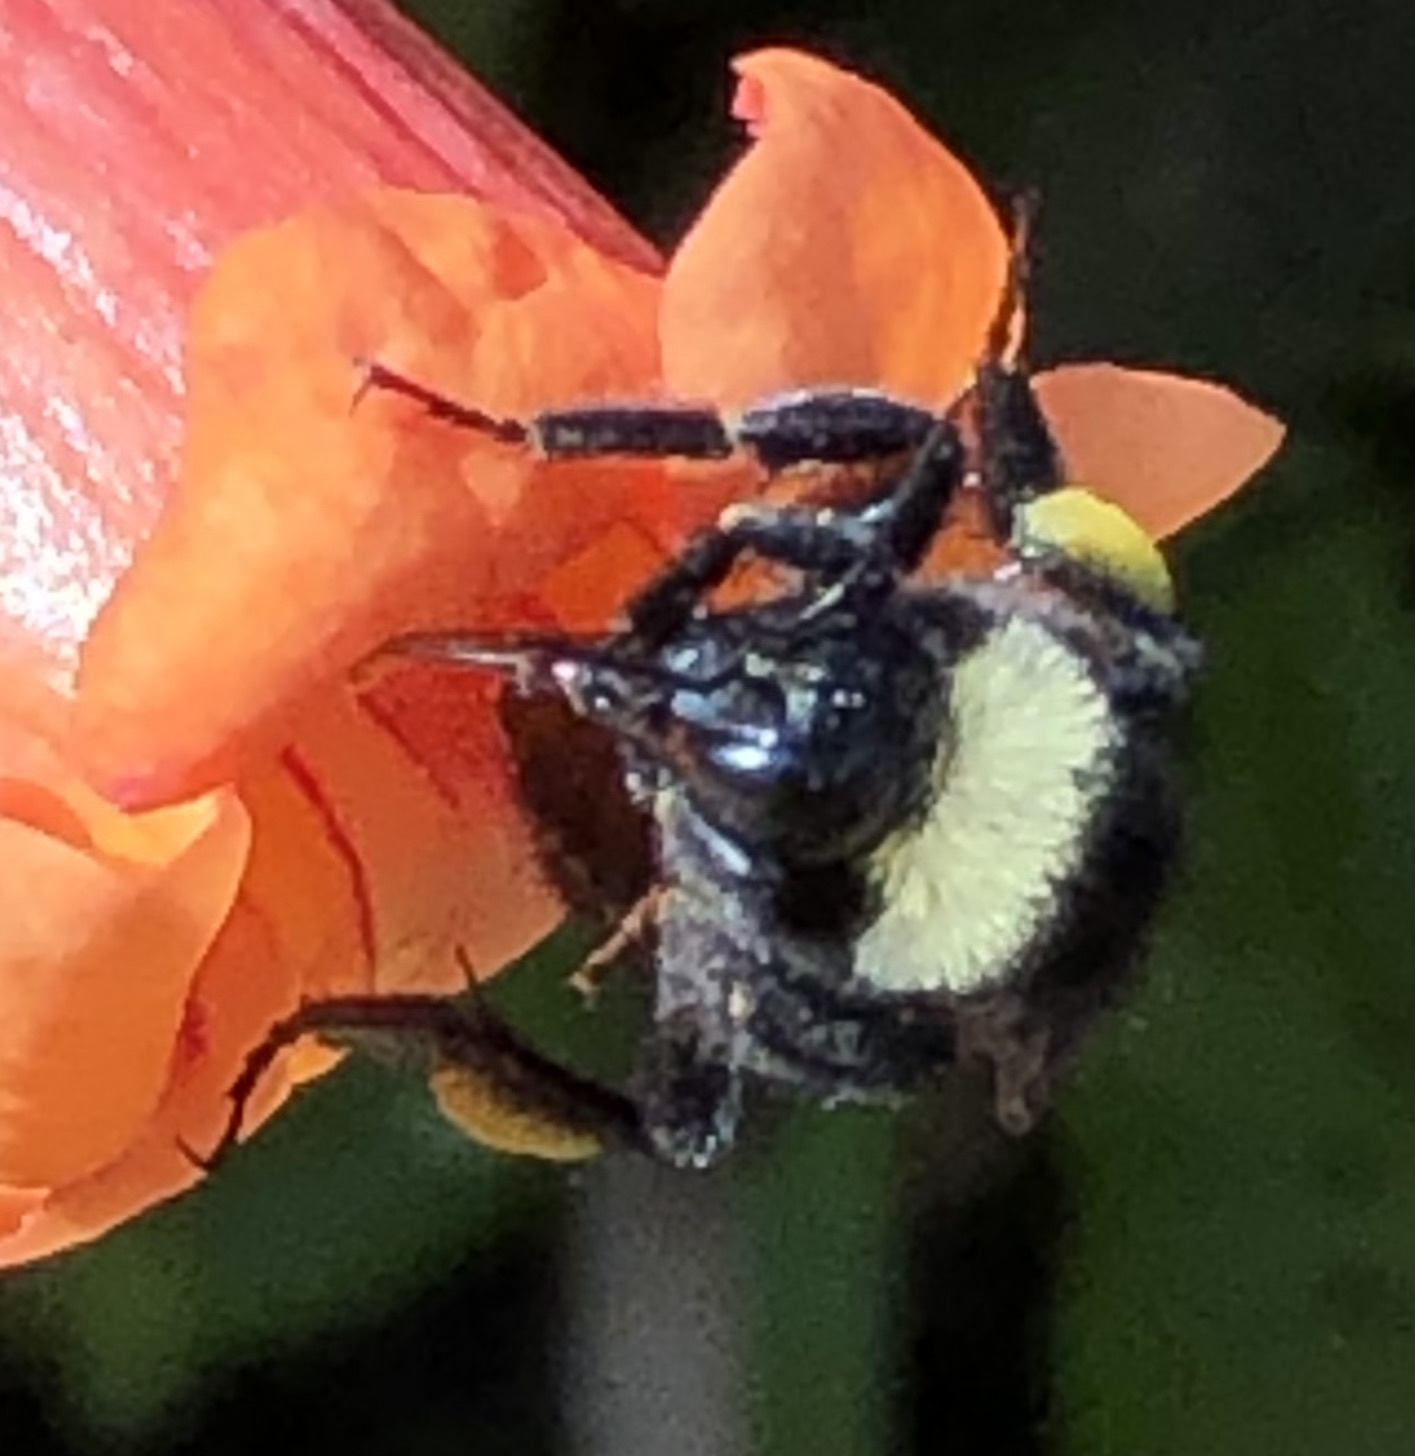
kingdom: Animalia
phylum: Arthropoda
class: Insecta
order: Hymenoptera
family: Apidae
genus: Bombus
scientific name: Bombus pensylvanicus
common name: Bumble bee
